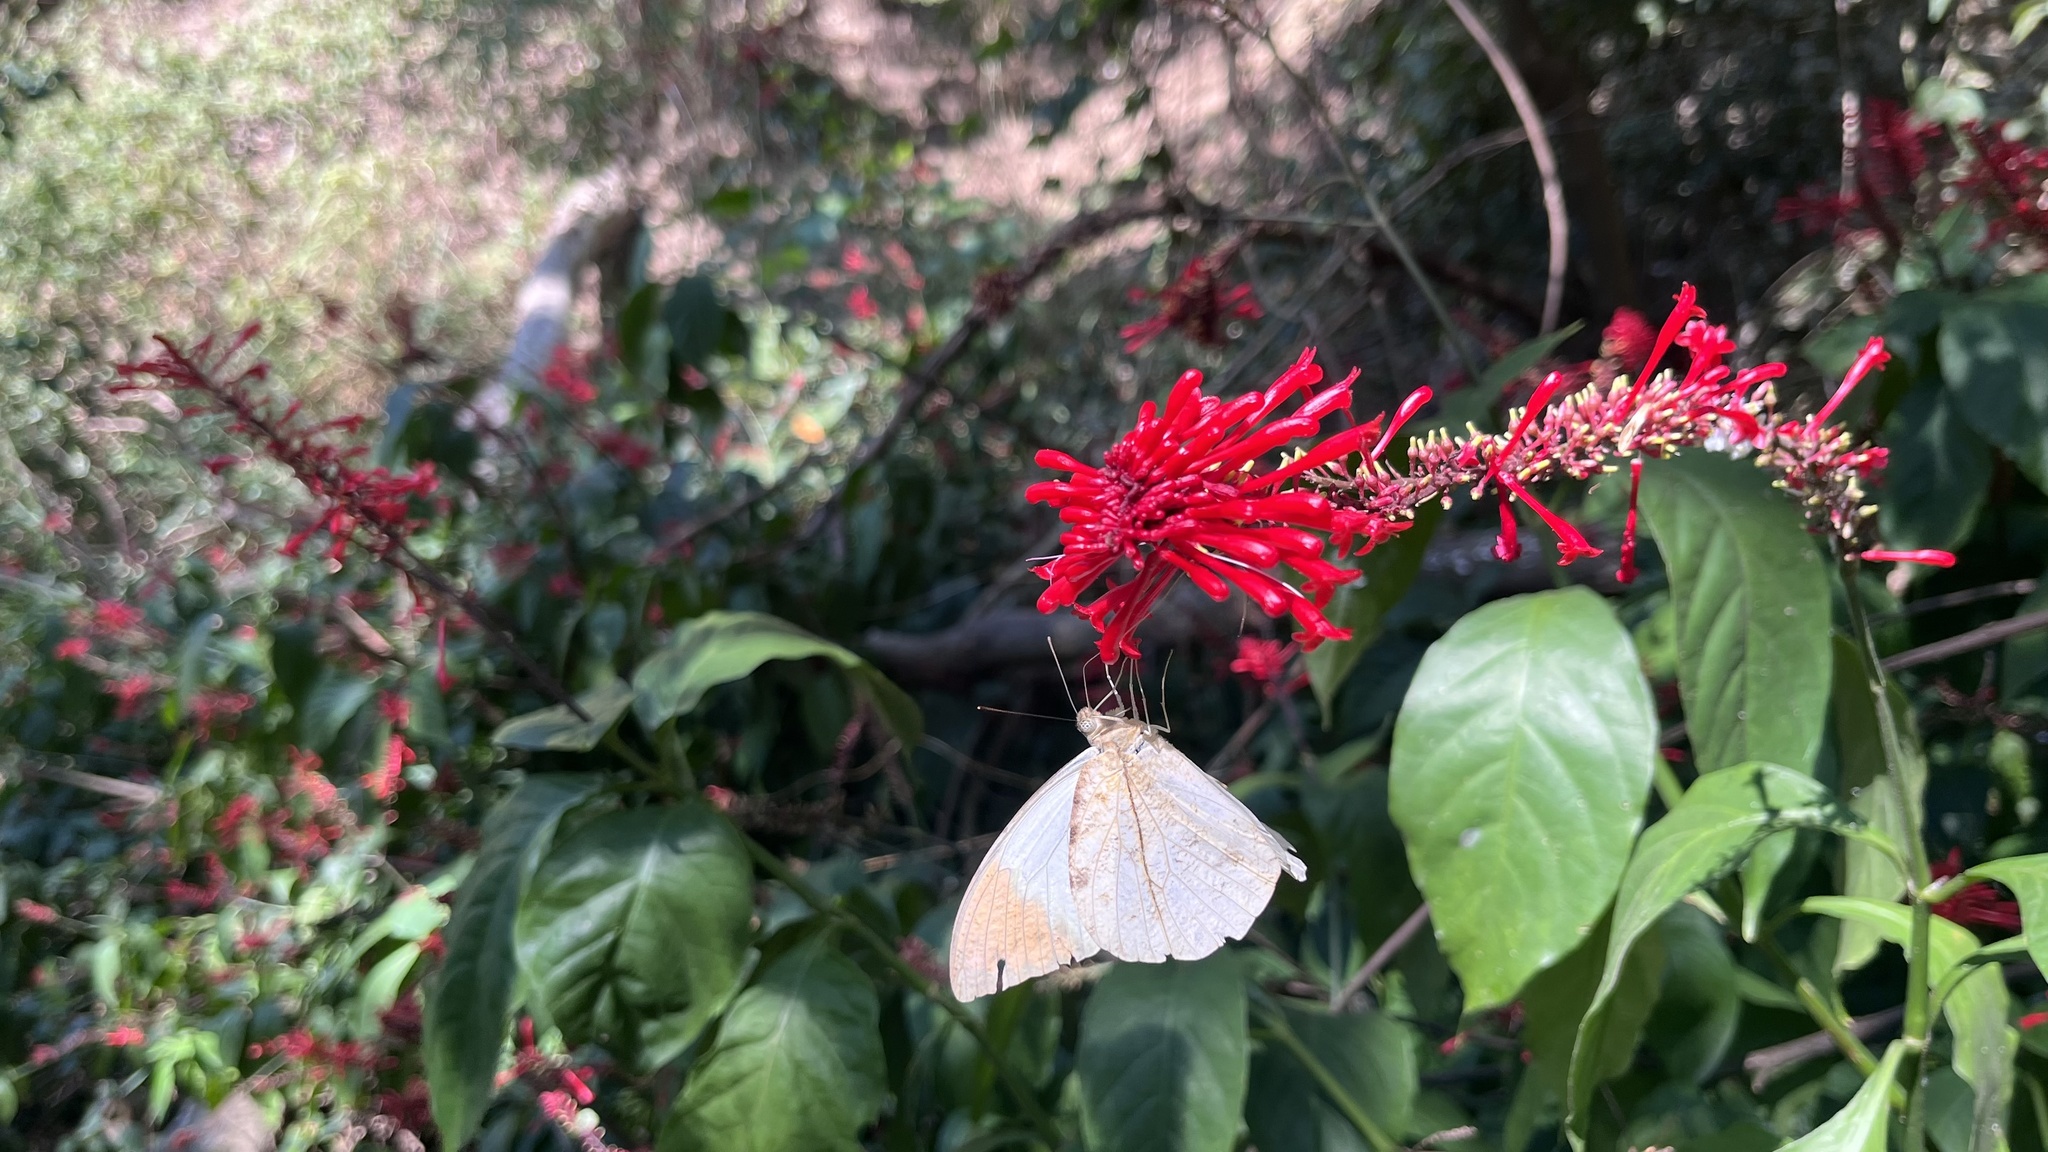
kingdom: Animalia
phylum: Arthropoda
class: Insecta
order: Lepidoptera
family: Pieridae
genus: Hebomoia
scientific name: Hebomoia glaucippe
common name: Great orange tip
